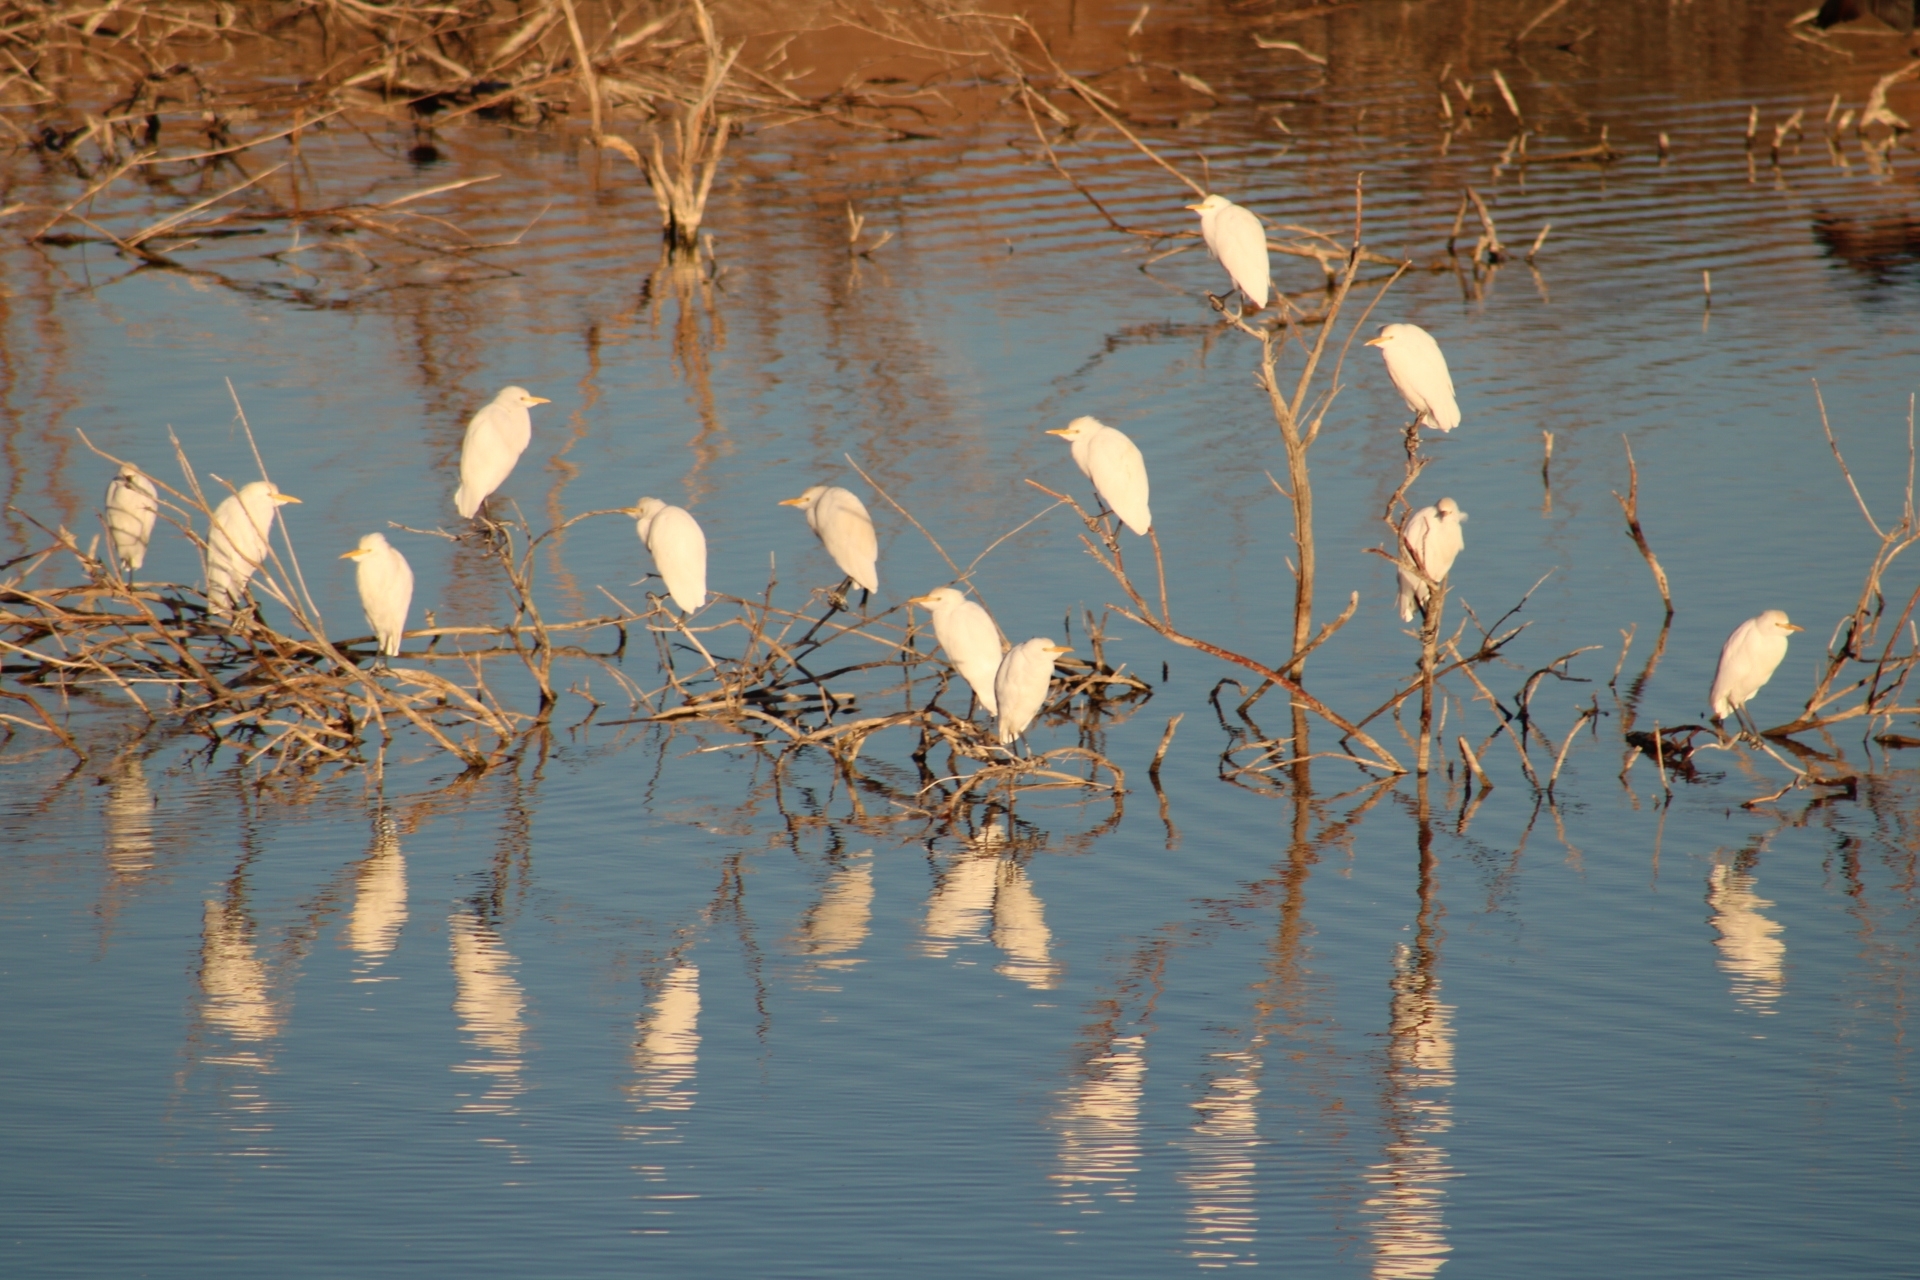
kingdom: Animalia
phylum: Chordata
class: Aves
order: Pelecaniformes
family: Ardeidae
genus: Bubulcus
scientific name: Bubulcus ibis
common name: Cattle egret
